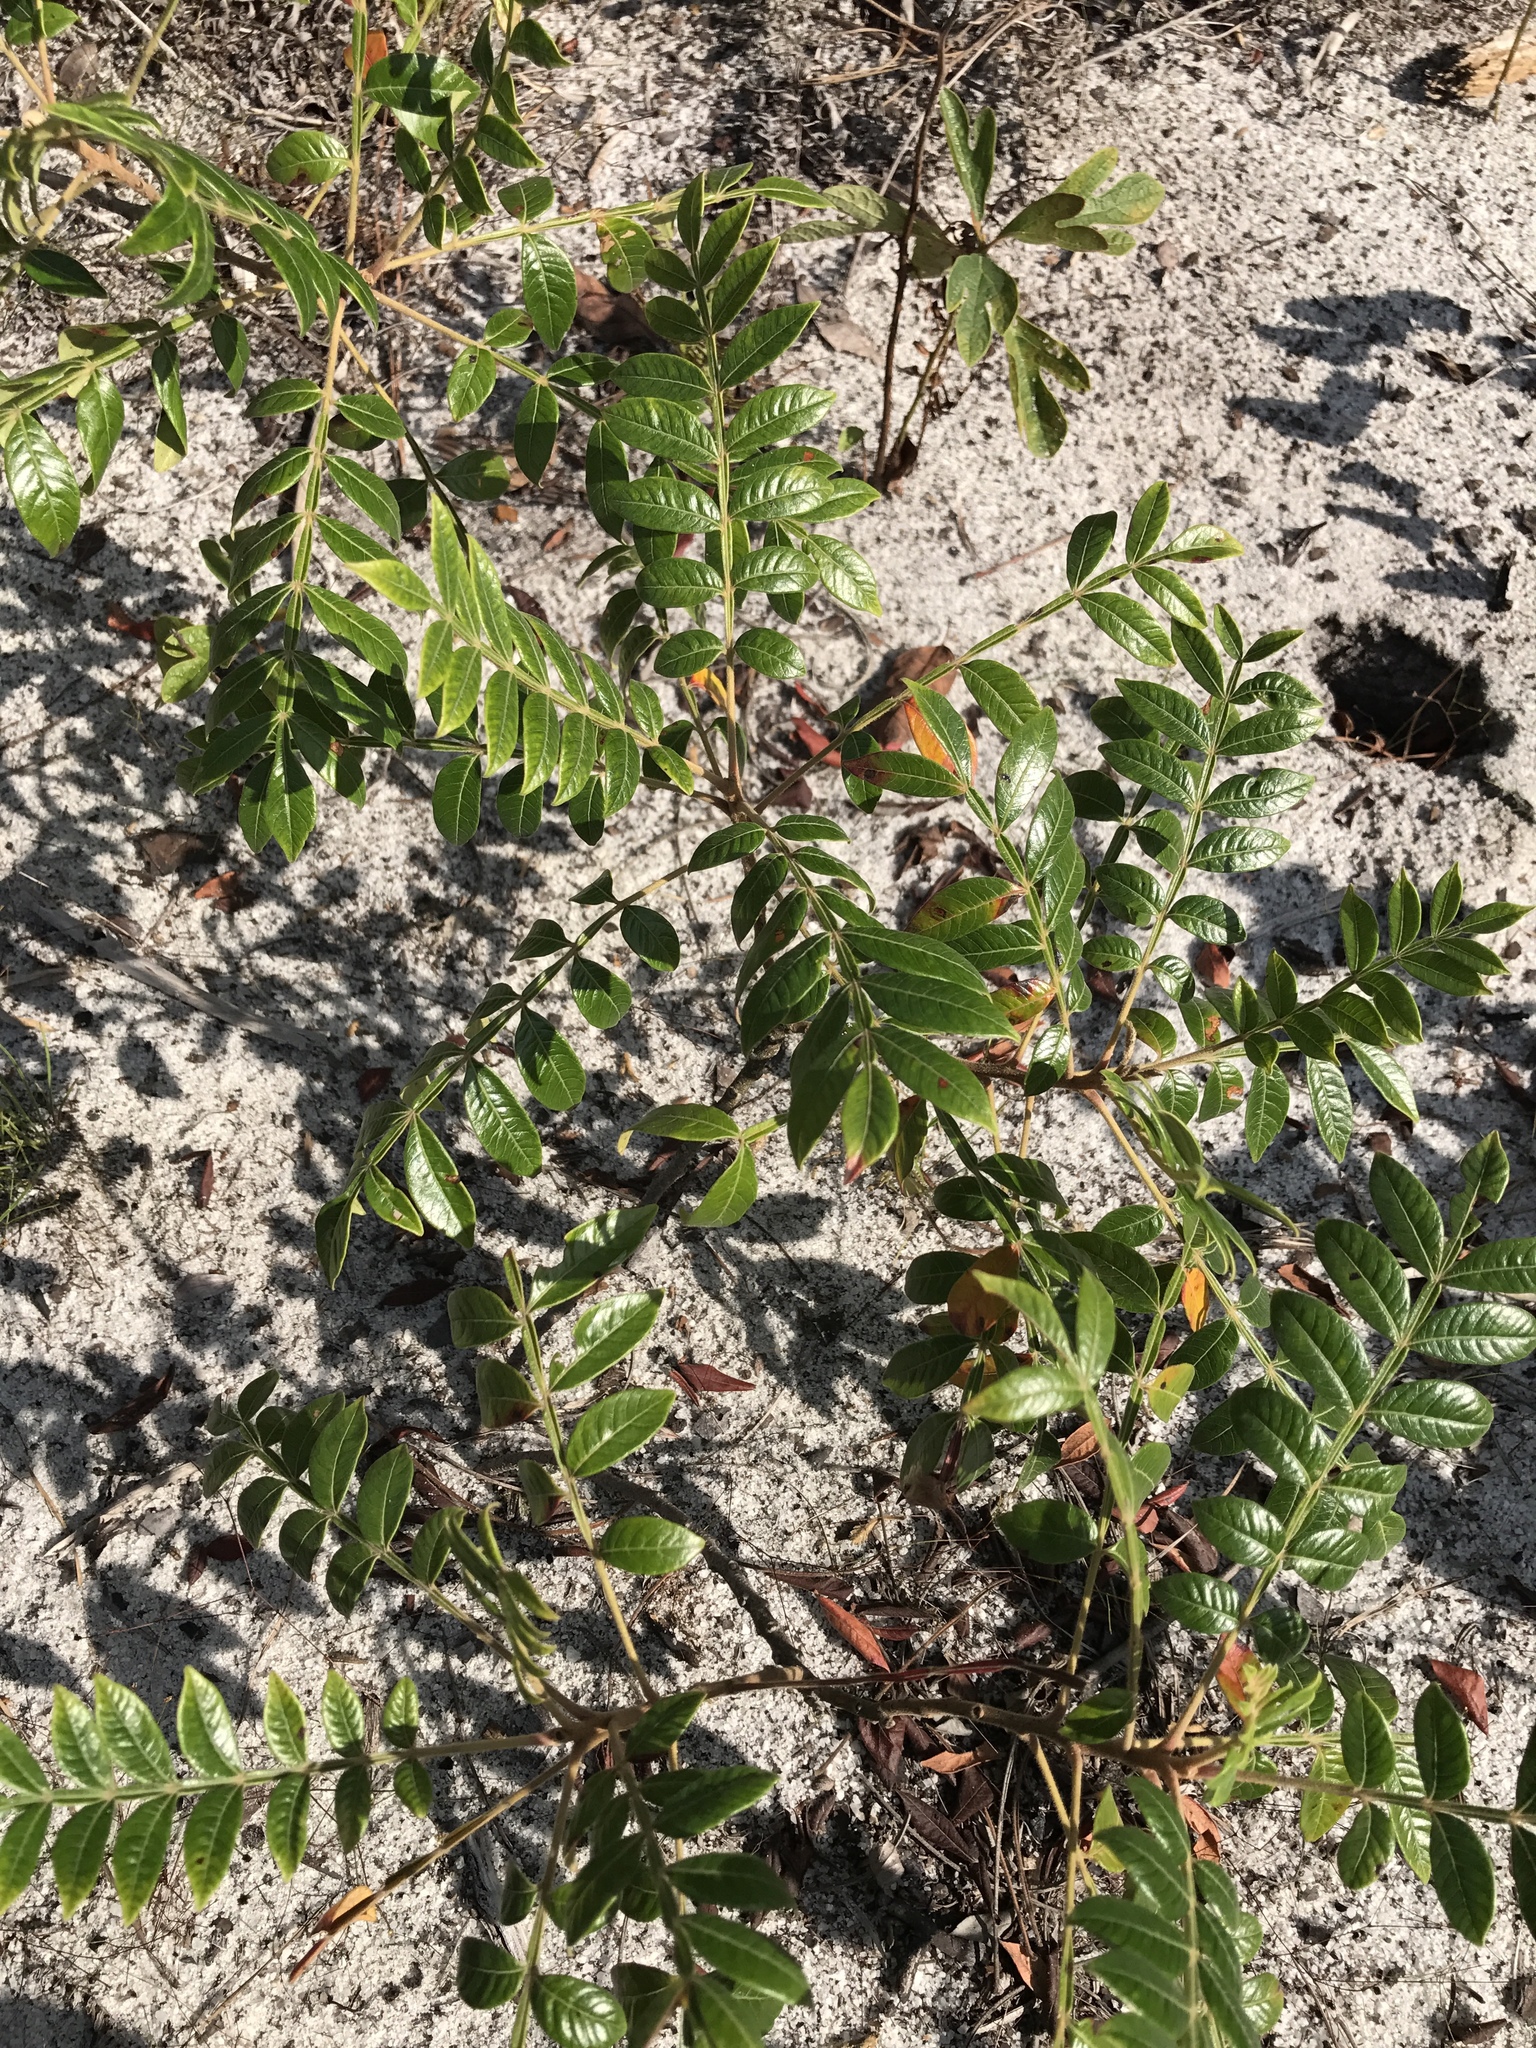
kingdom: Plantae
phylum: Tracheophyta
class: Magnoliopsida
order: Sapindales
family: Anacardiaceae
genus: Rhus
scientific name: Rhus copallina
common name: Shining sumac
